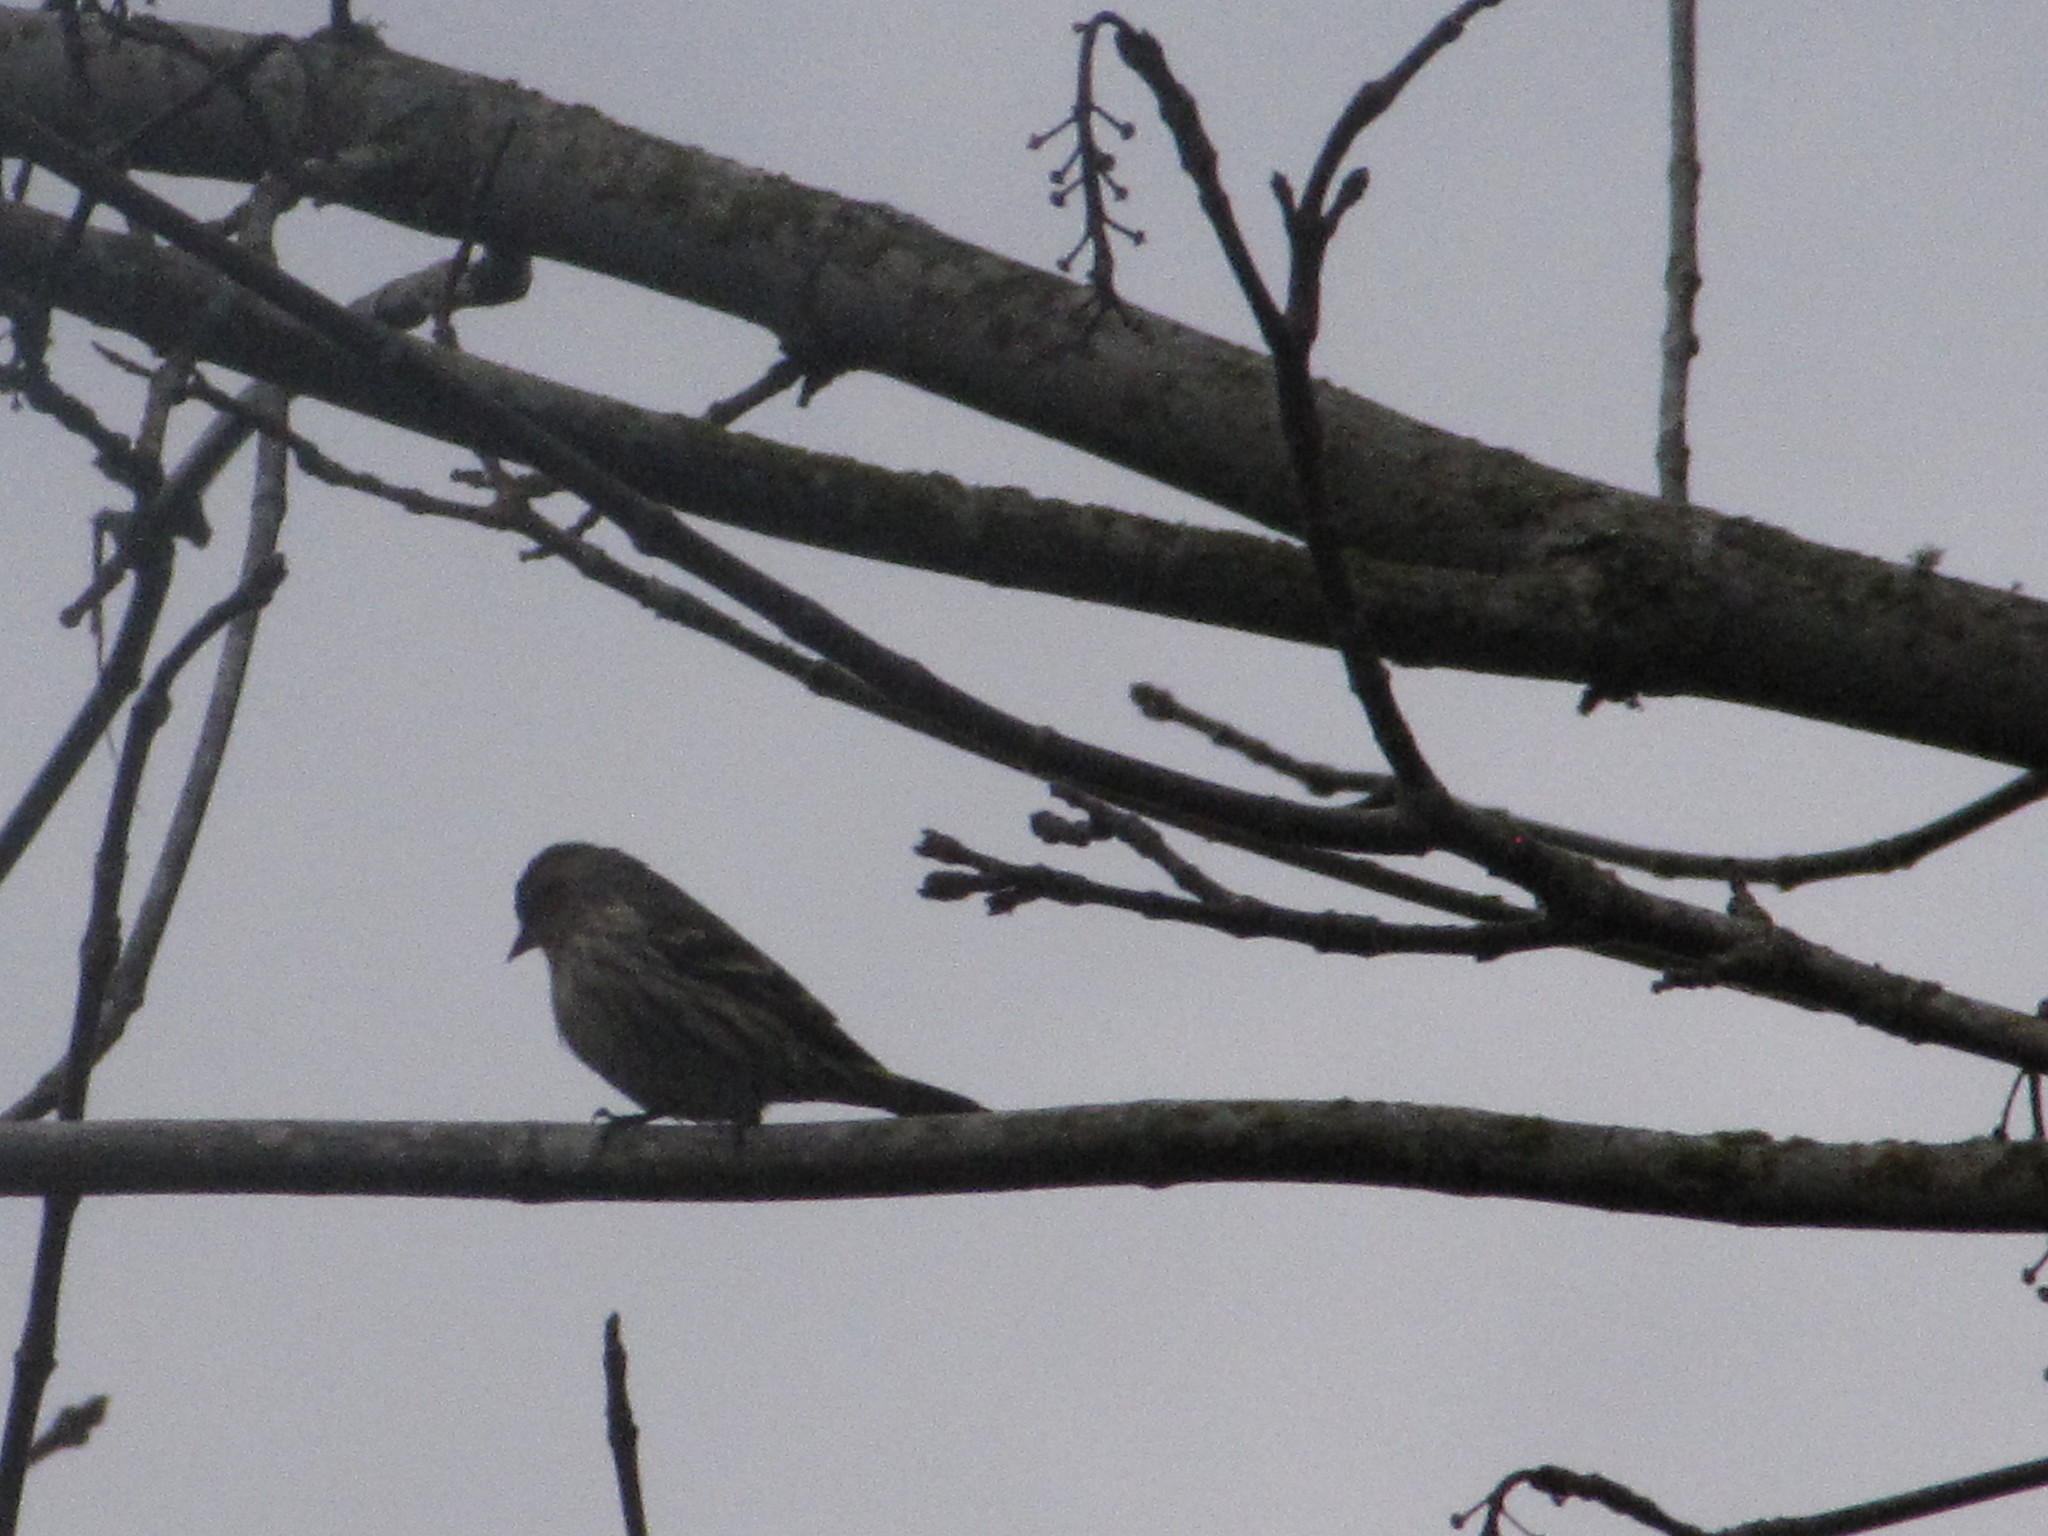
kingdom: Animalia
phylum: Chordata
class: Aves
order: Passeriformes
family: Fringillidae
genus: Spinus
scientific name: Spinus pinus
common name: Pine siskin
